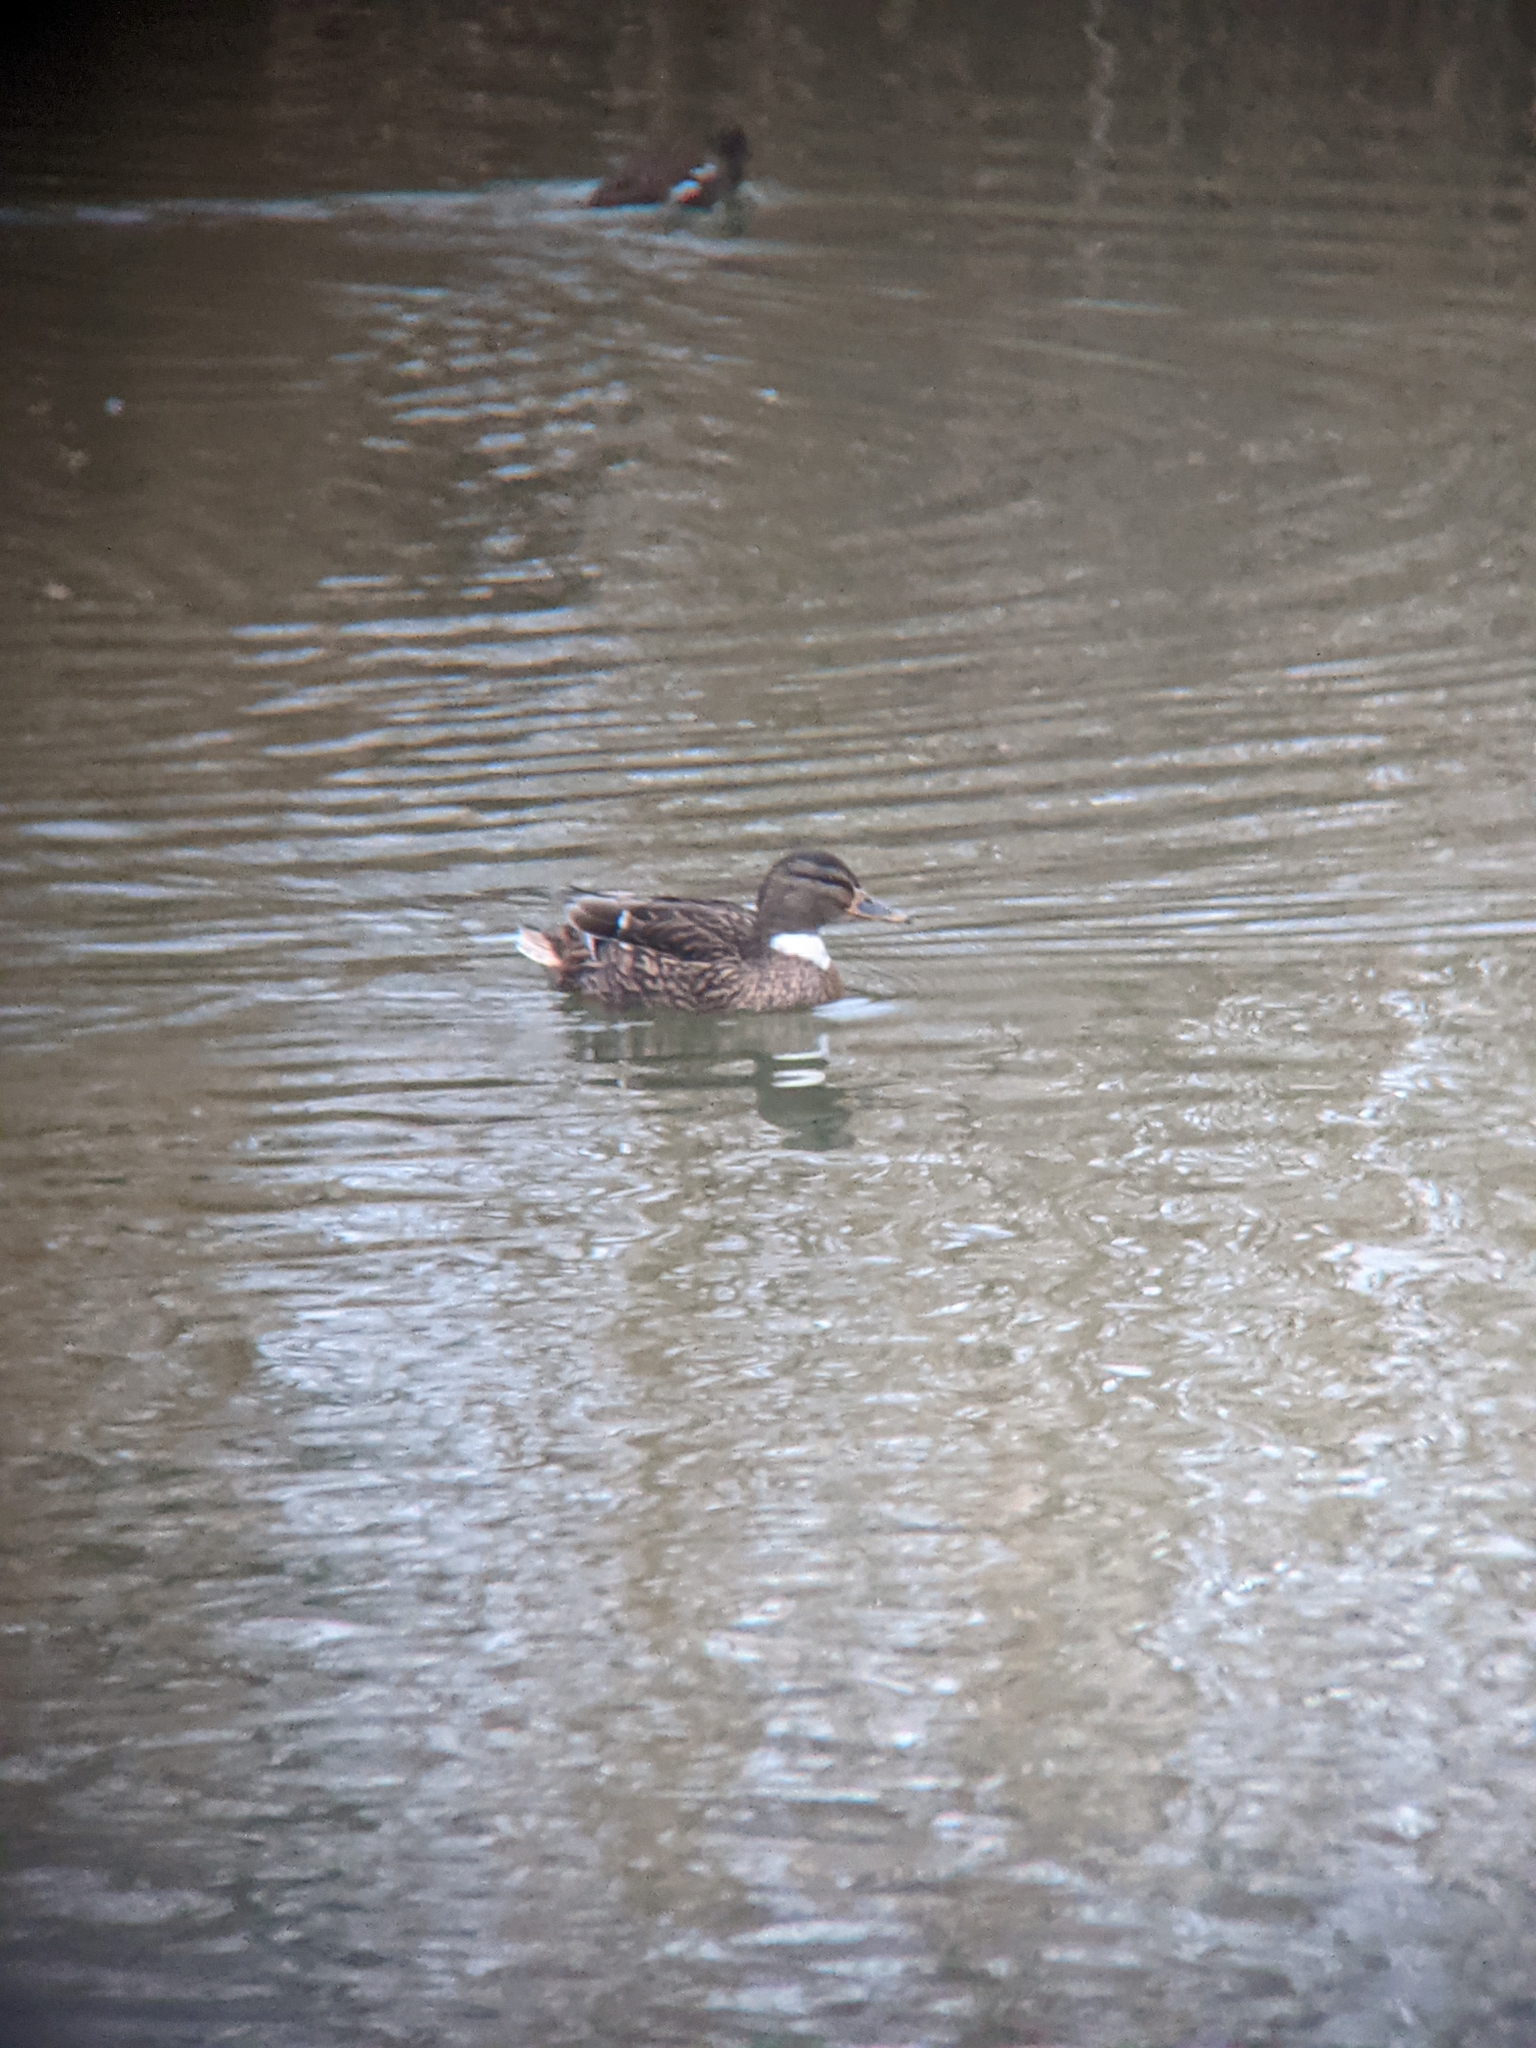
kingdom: Animalia
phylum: Chordata
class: Aves
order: Anseriformes
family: Anatidae
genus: Anas
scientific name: Anas platyrhynchos
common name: Mallard
